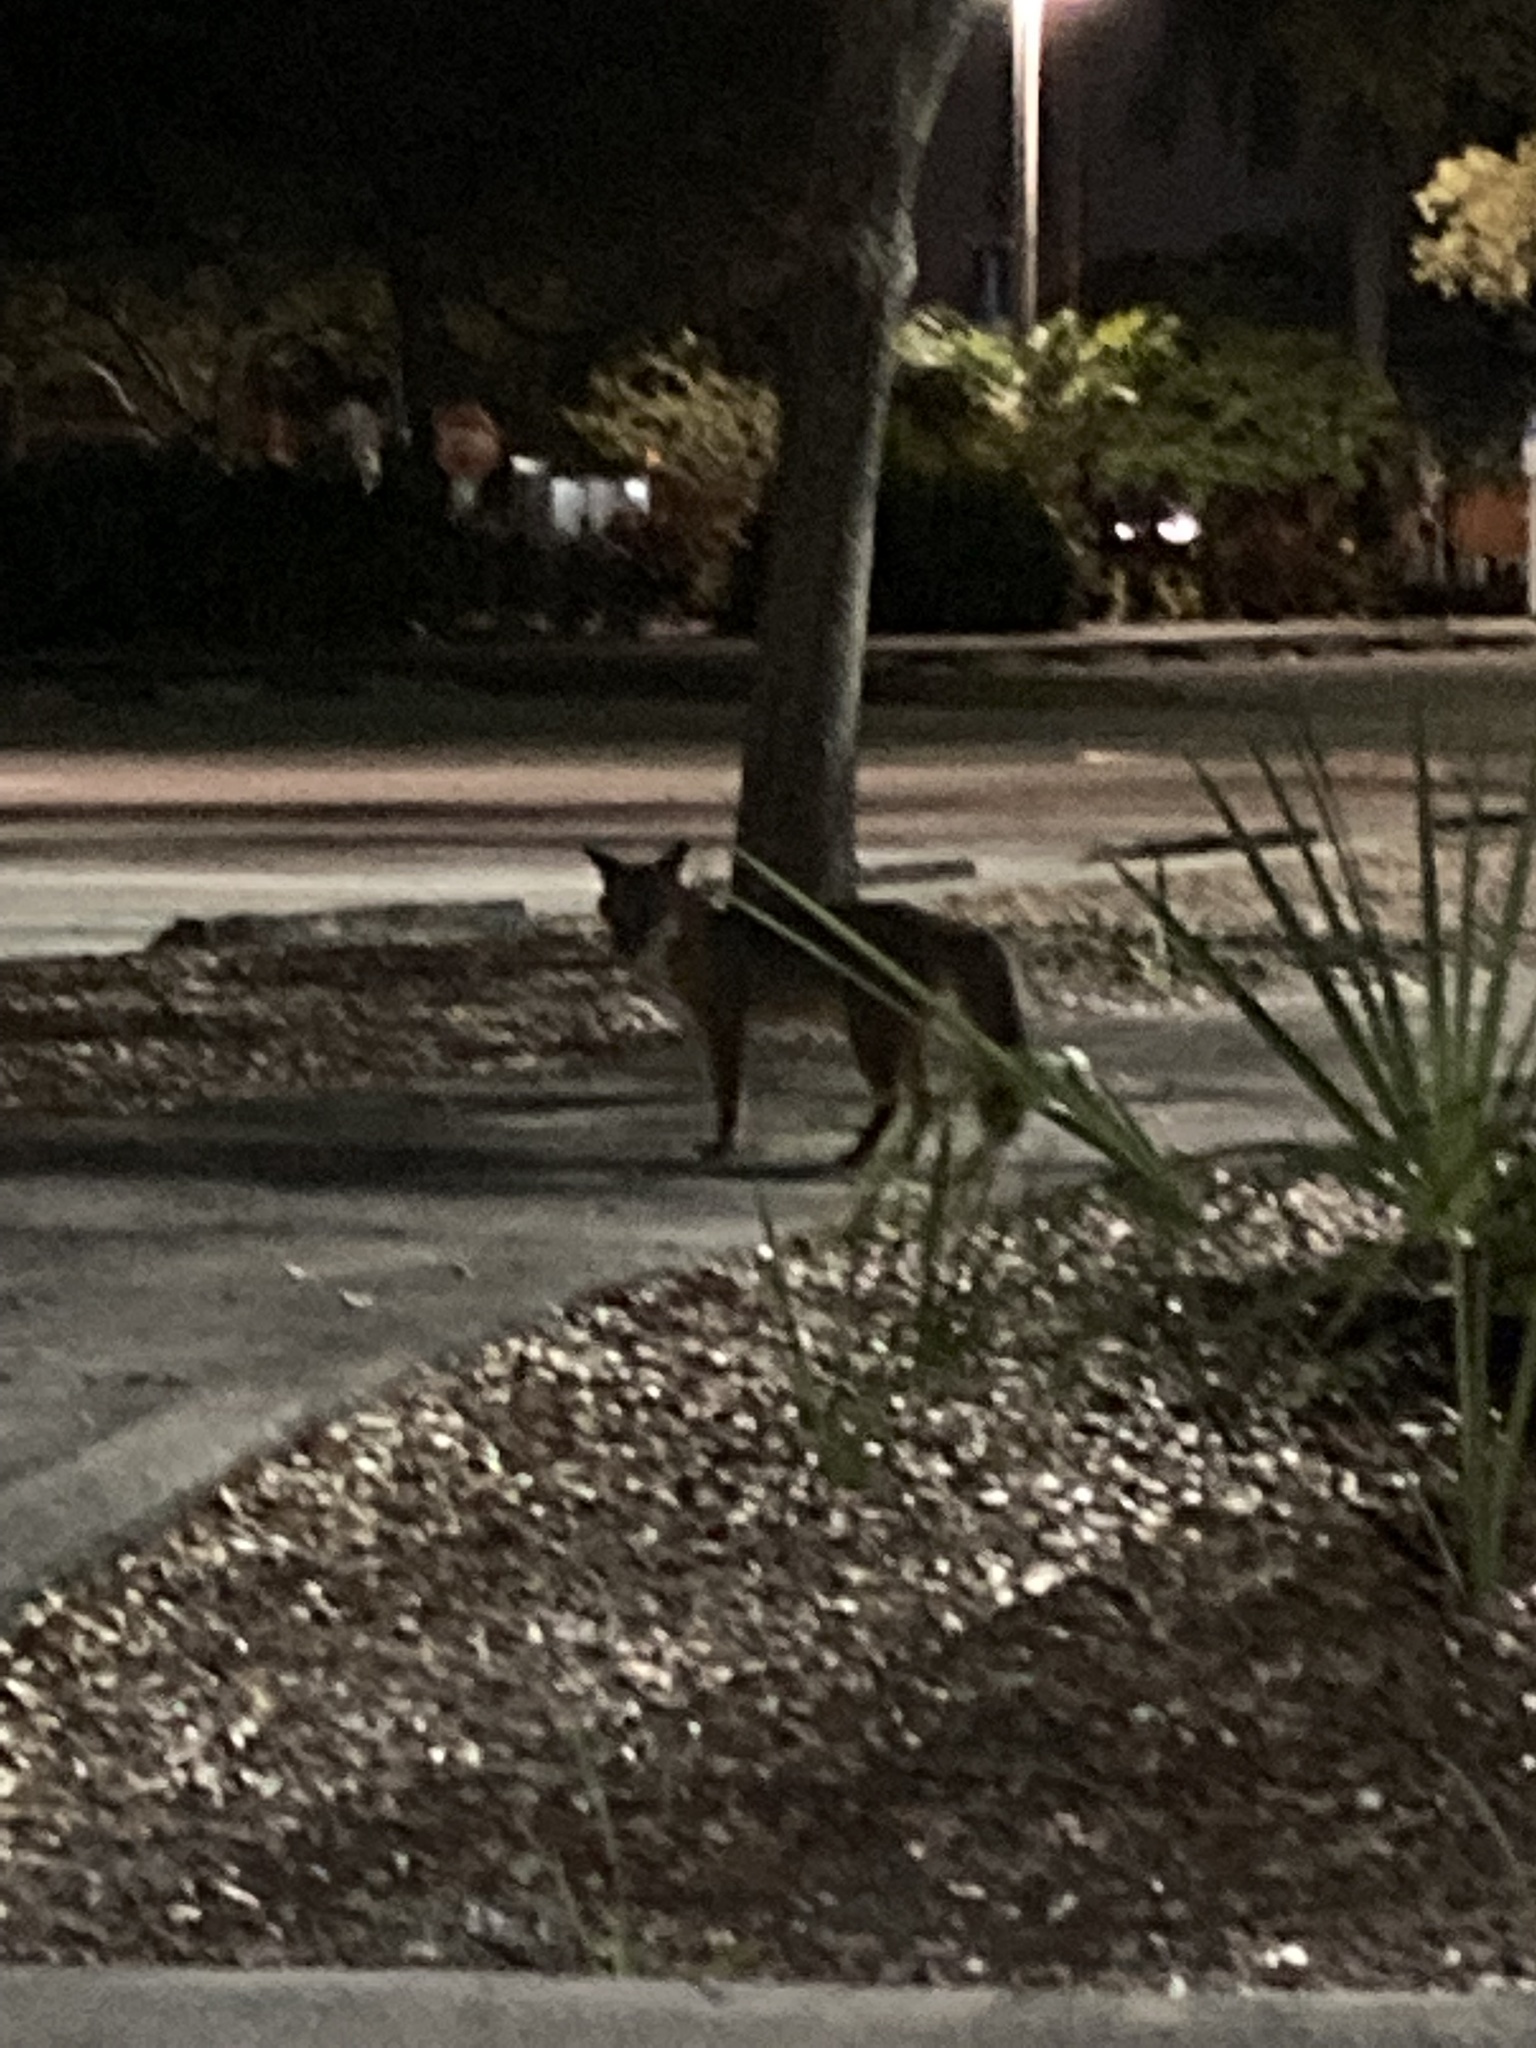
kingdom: Animalia
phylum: Chordata
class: Mammalia
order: Carnivora
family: Canidae
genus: Urocyon
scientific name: Urocyon cinereoargenteus
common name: Gray fox
